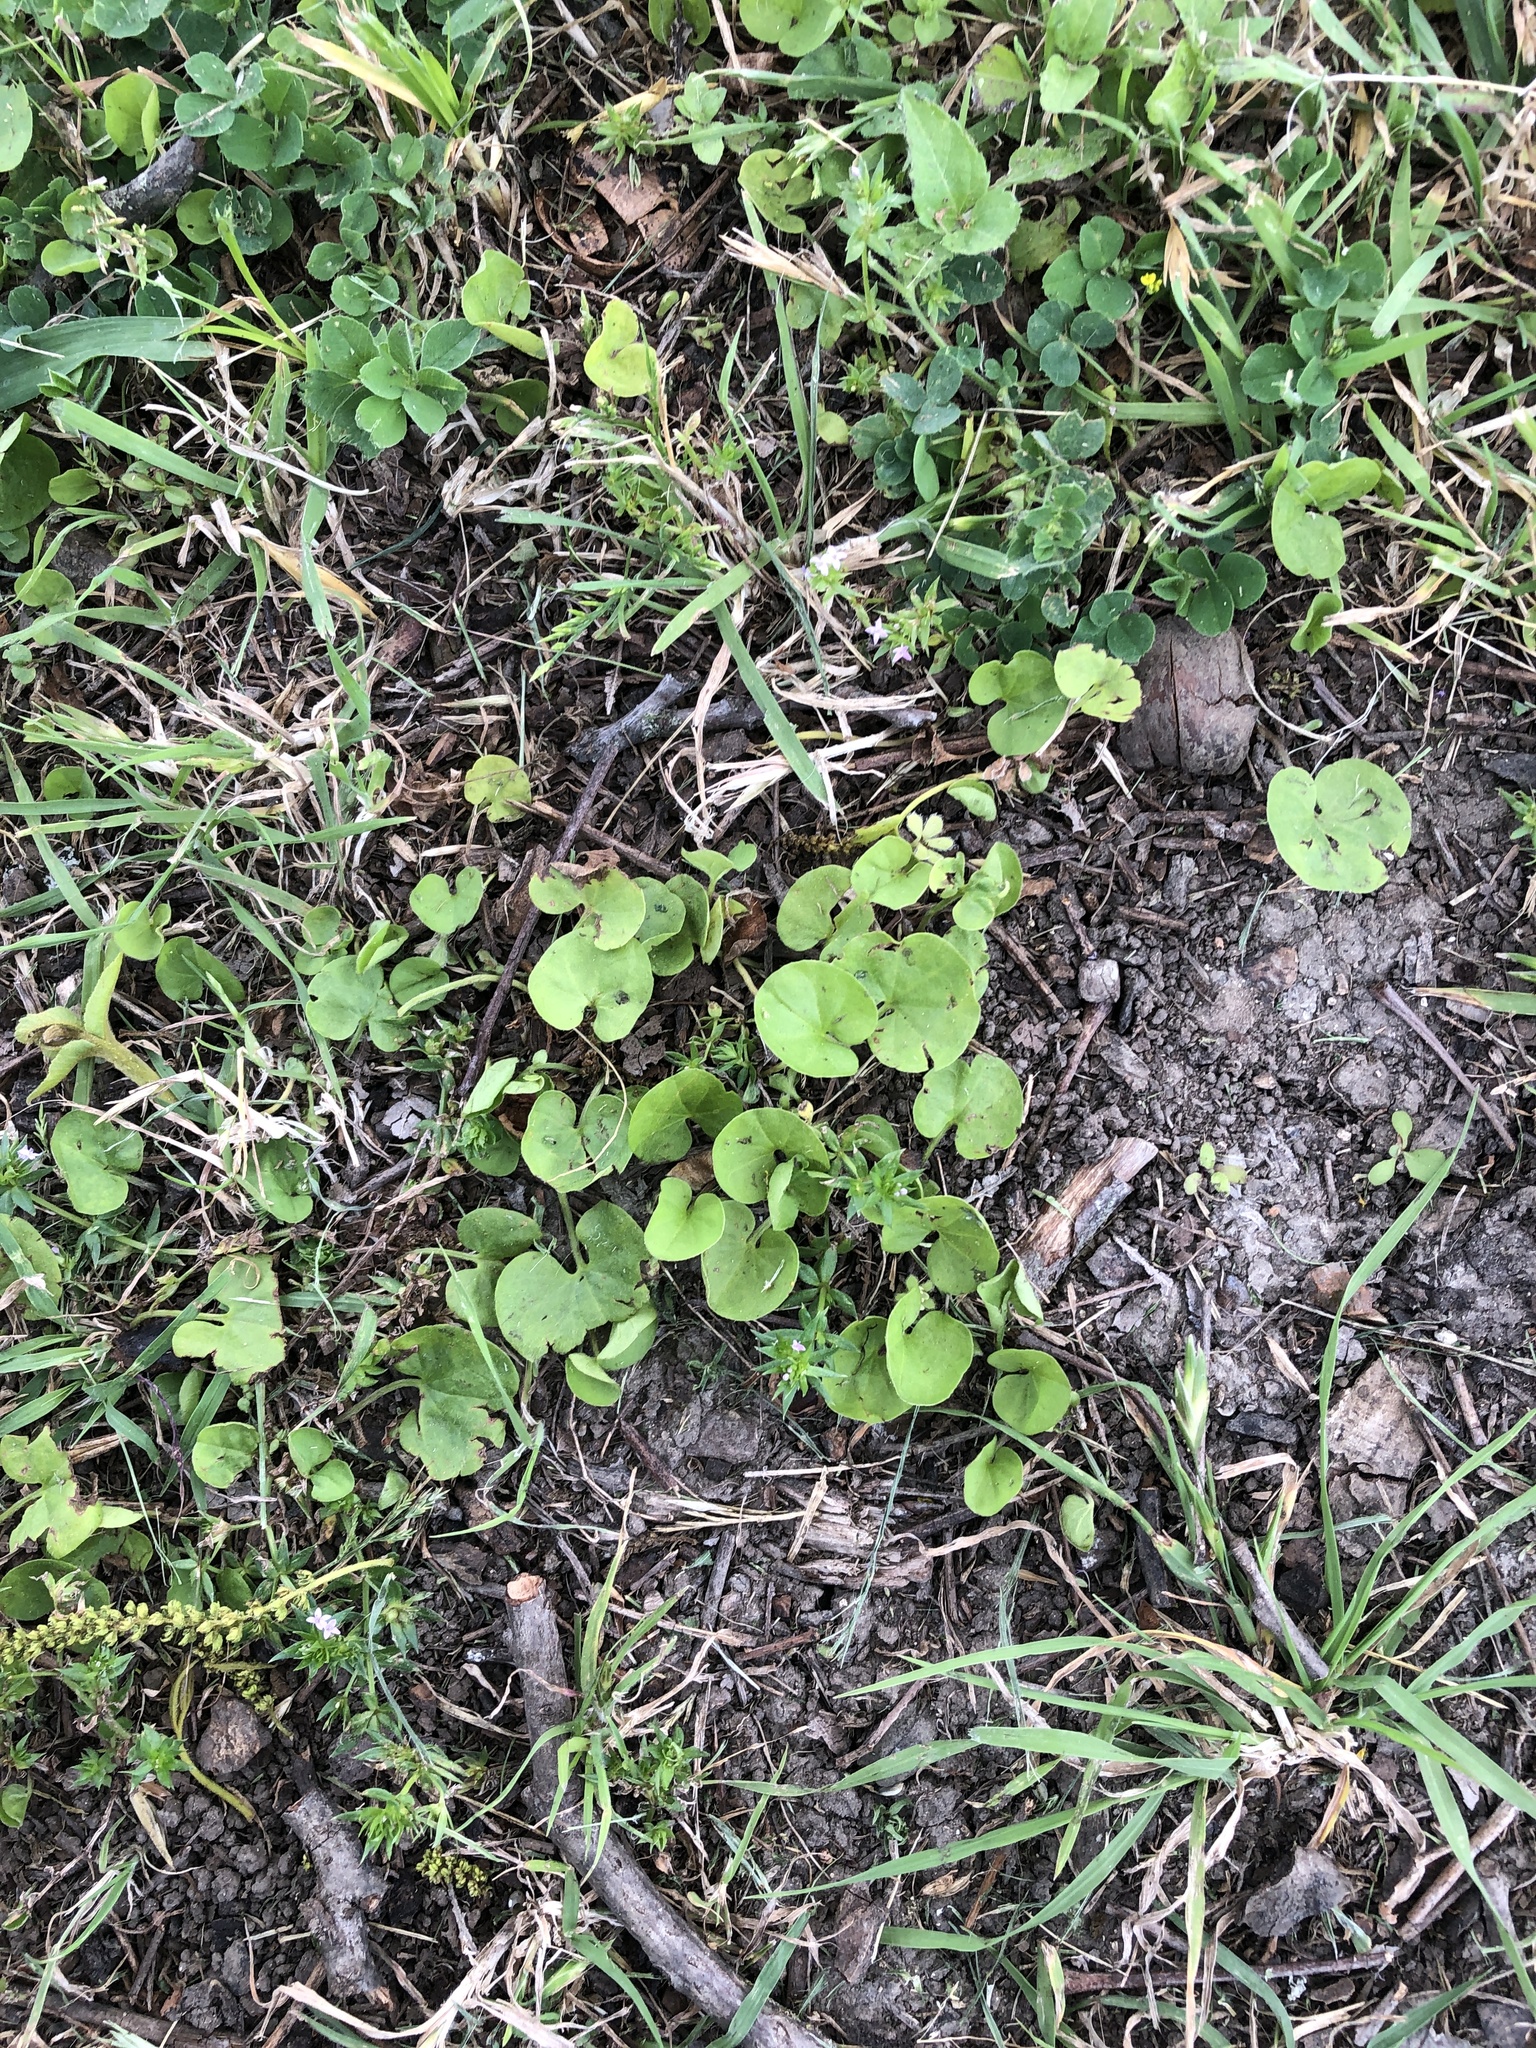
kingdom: Plantae
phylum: Tracheophyta
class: Magnoliopsida
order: Solanales
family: Convolvulaceae
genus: Dichondra
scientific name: Dichondra carolinensis
